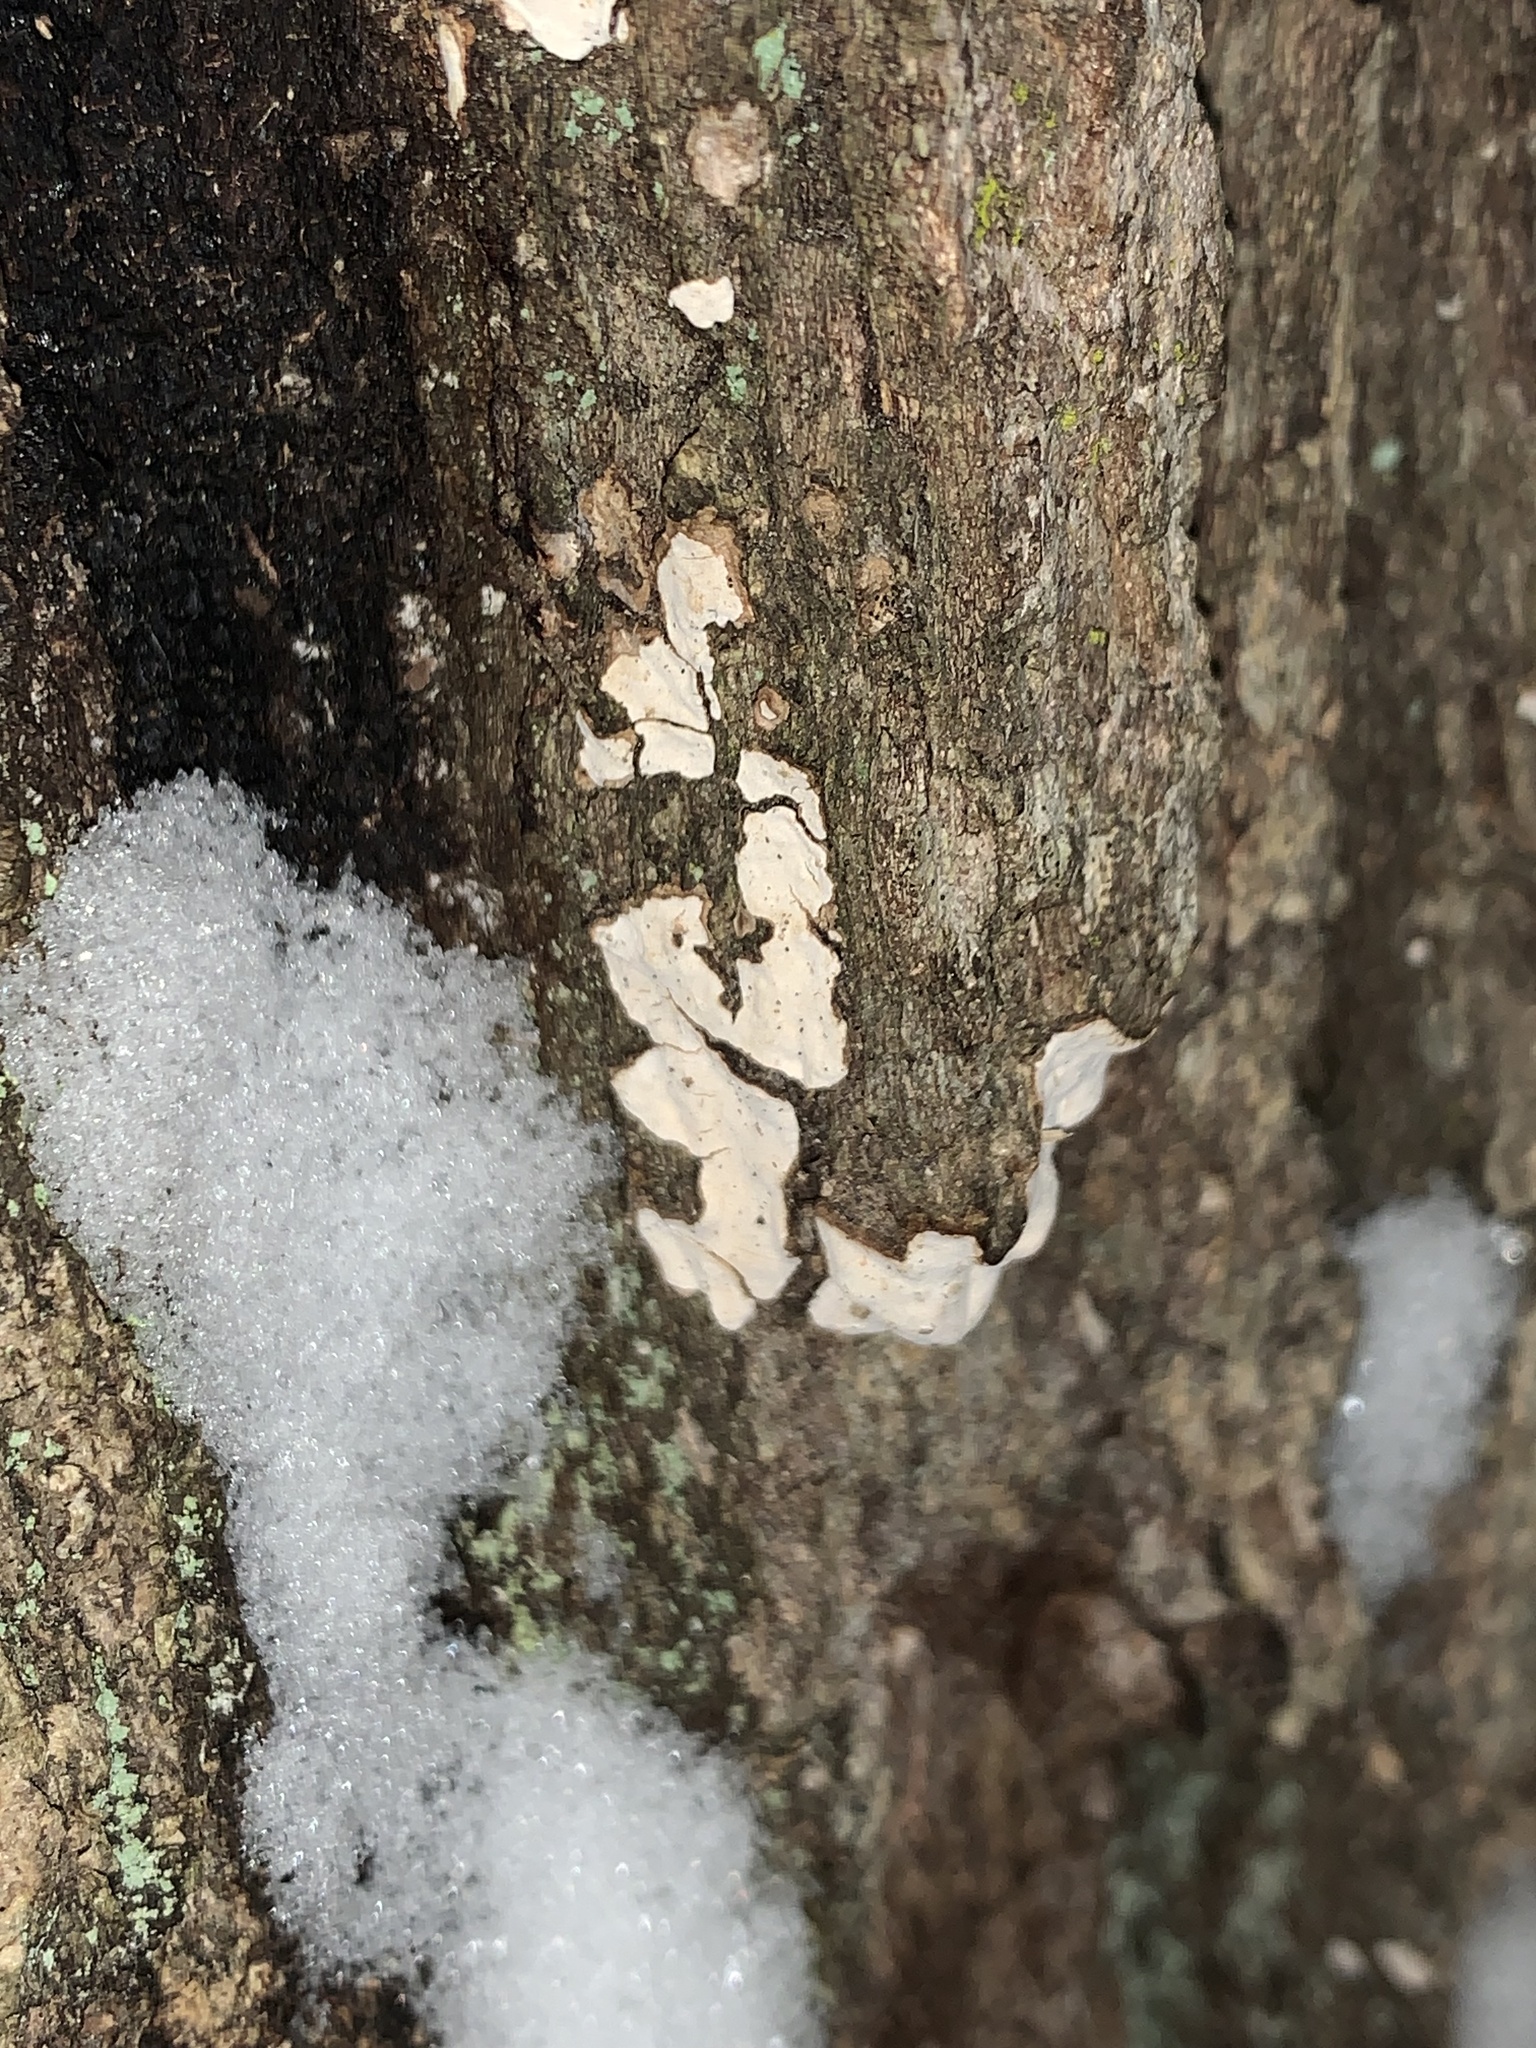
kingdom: Fungi
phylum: Basidiomycota
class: Agaricomycetes
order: Russulales
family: Stereaceae
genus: Acanthophysium
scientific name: Acanthophysium oakesii
